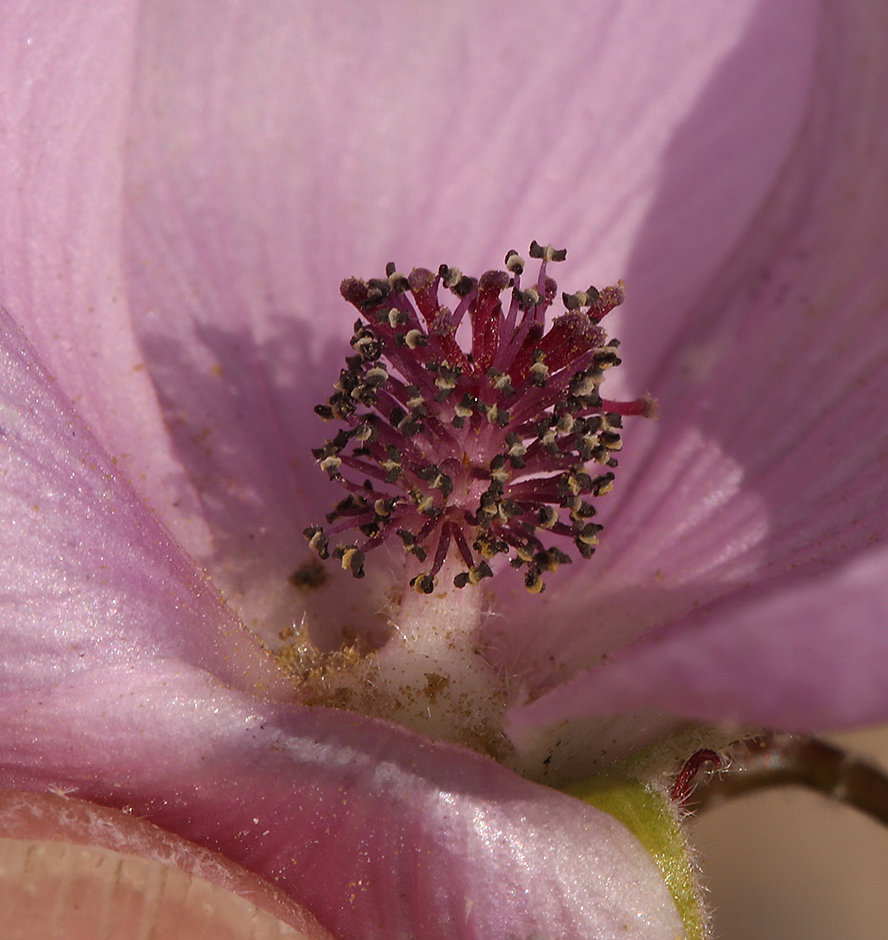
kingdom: Plantae
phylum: Tracheophyta
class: Magnoliopsida
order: Malvales
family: Malvaceae
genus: Sphaeralcea
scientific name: Sphaeralcea ambigua
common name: Apricot globe-mallow
